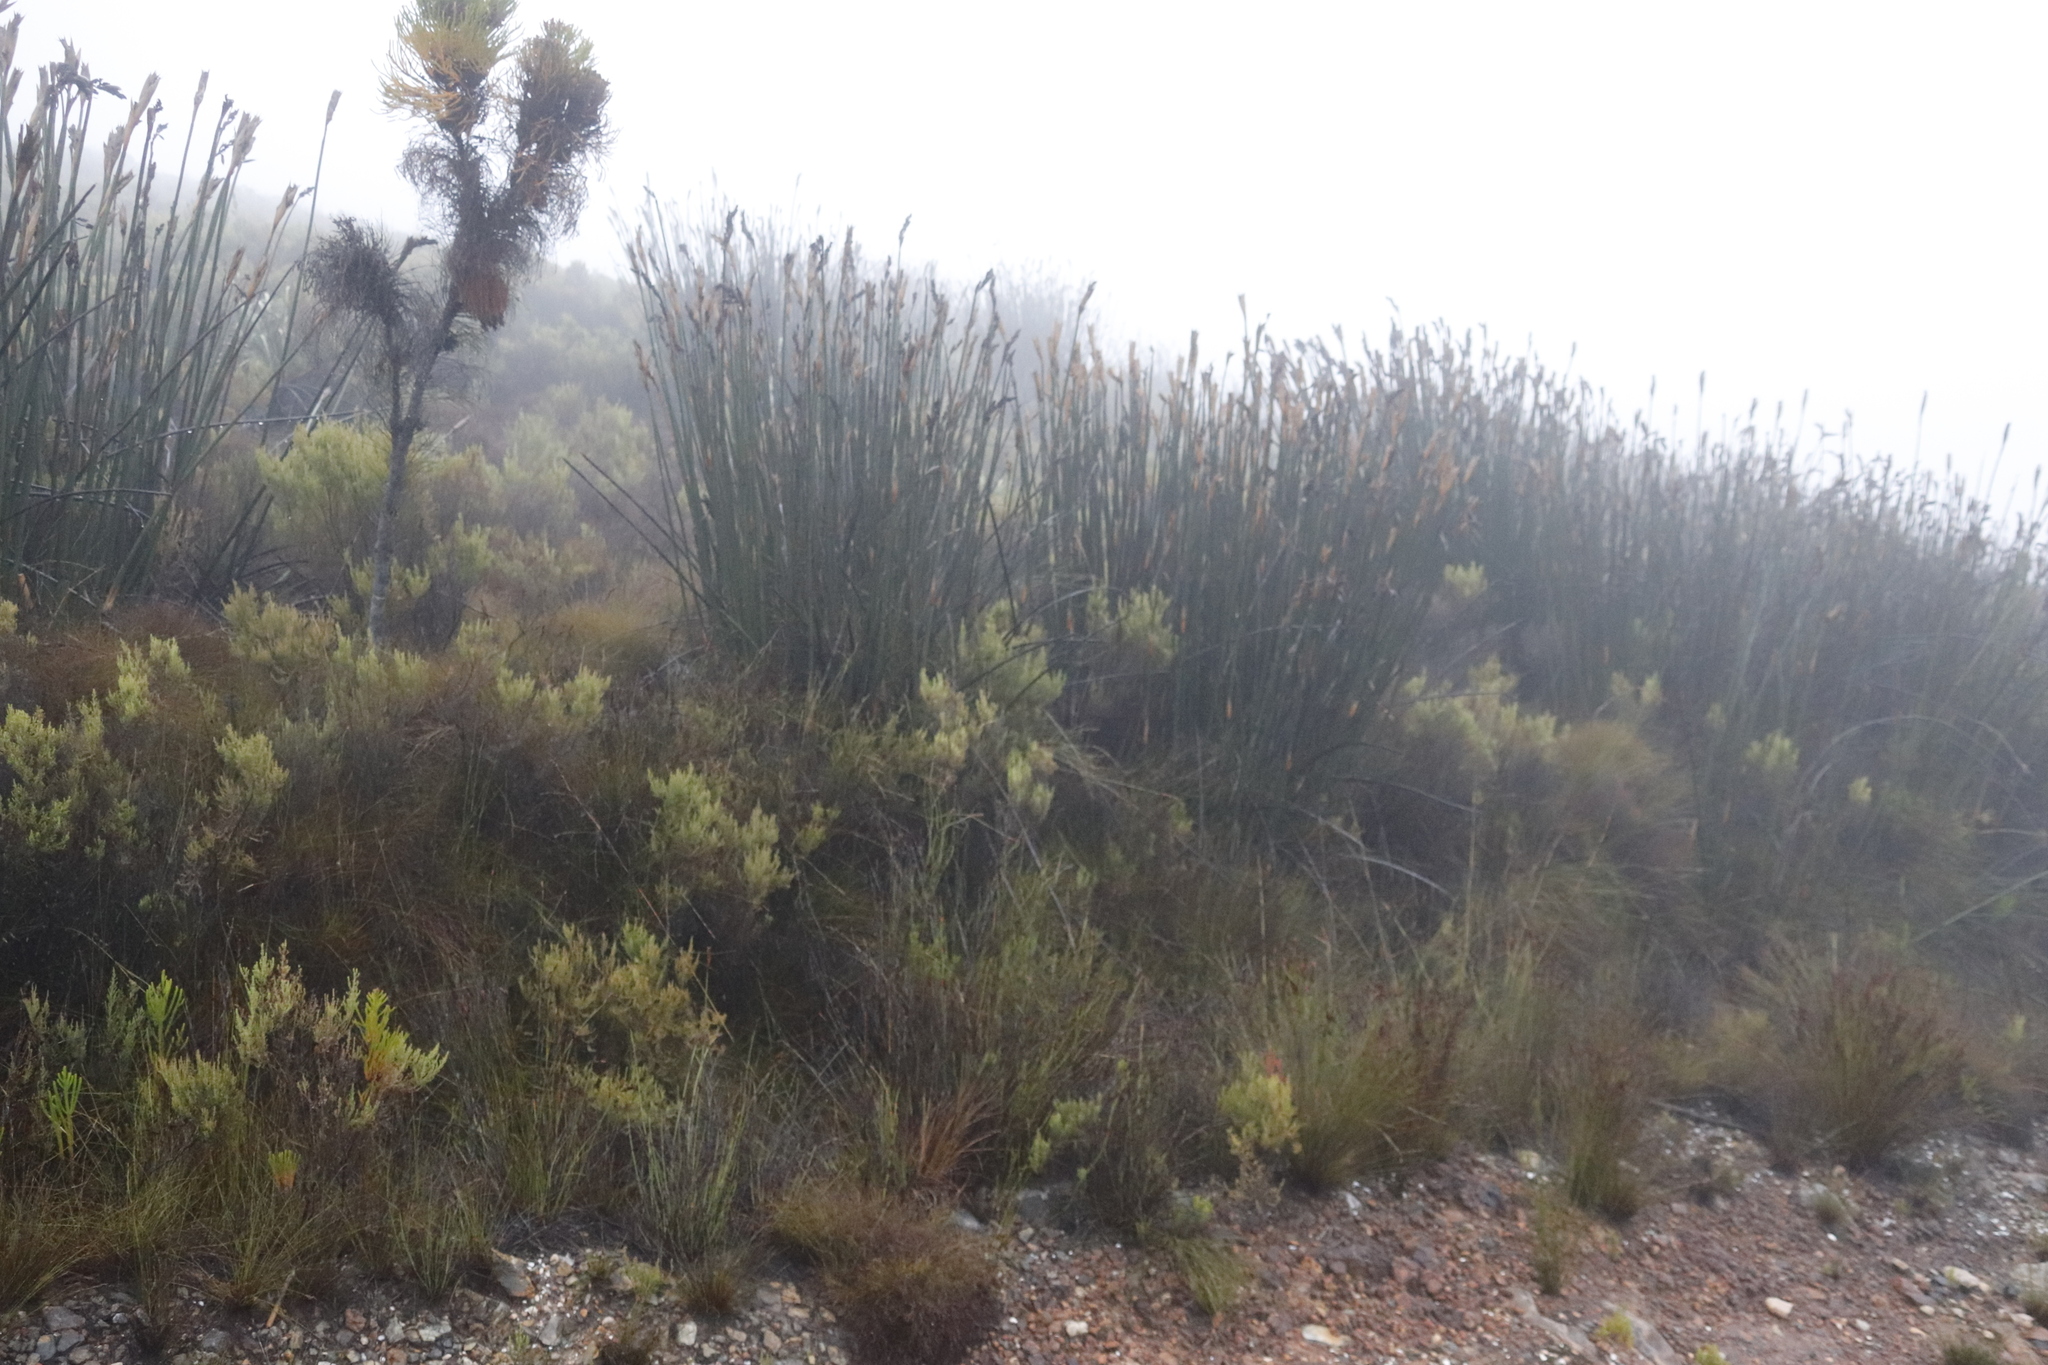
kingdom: Plantae
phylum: Tracheophyta
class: Liliopsida
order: Poales
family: Restionaceae
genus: Elegia
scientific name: Elegia mucronata
